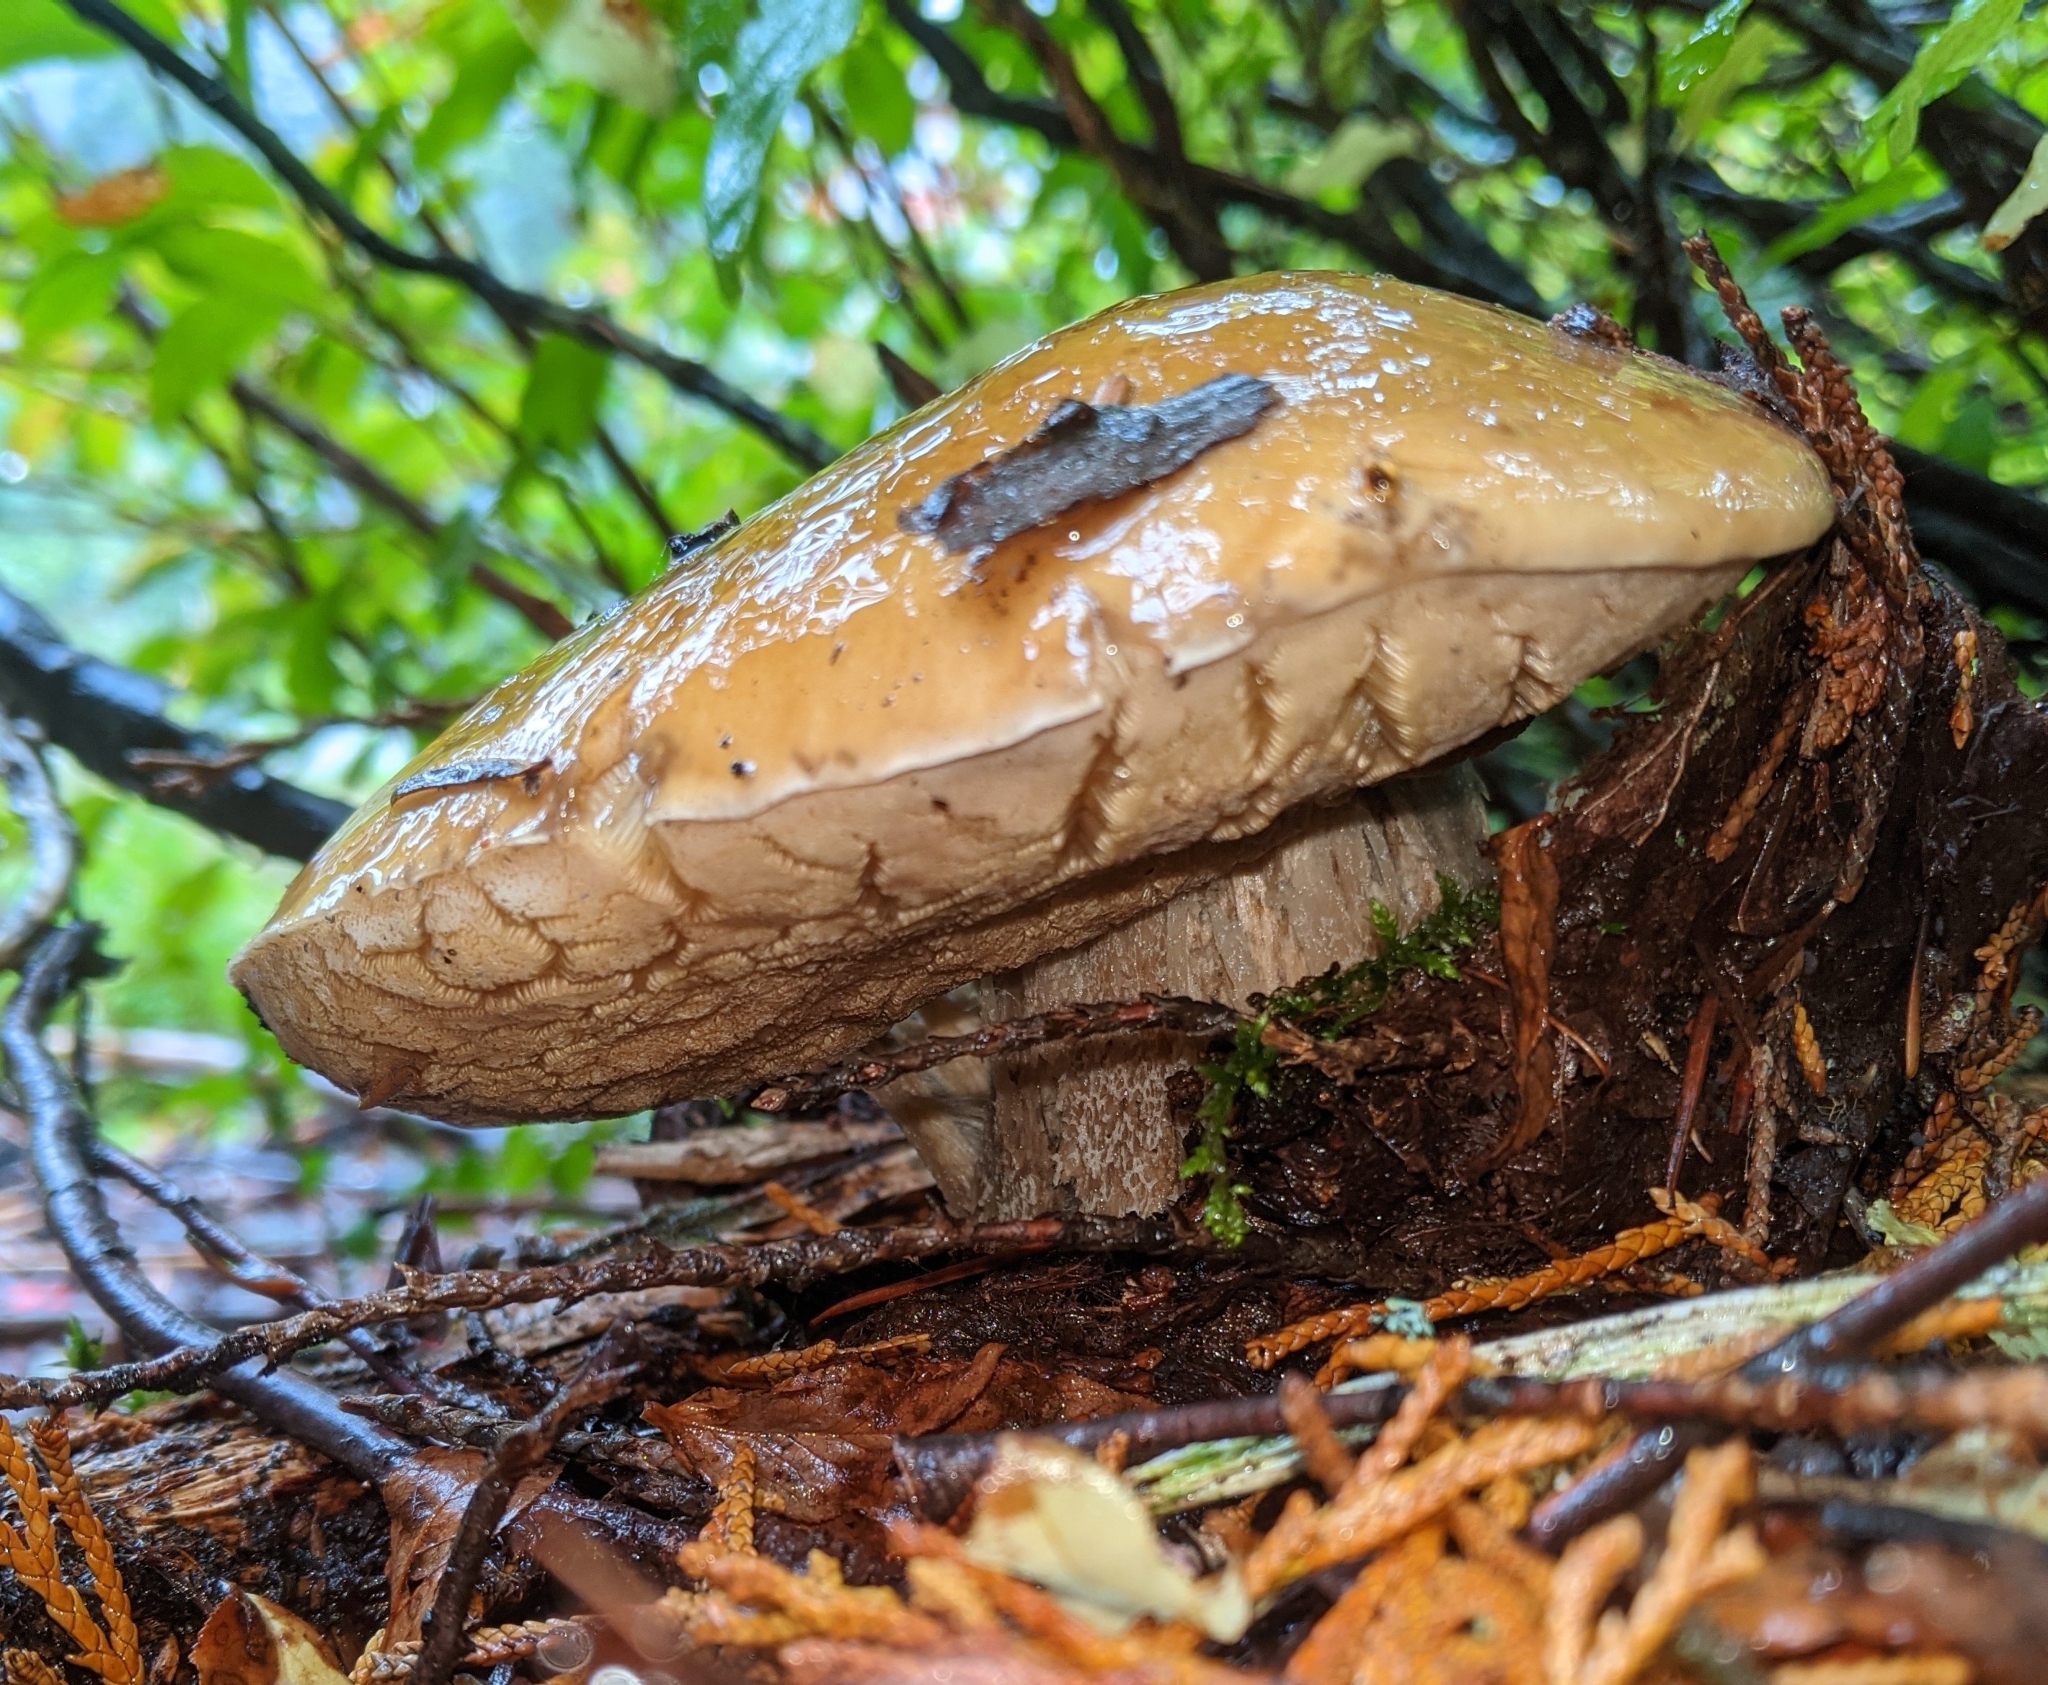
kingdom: Fungi
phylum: Basidiomycota
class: Agaricomycetes
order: Boletales
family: Boletaceae
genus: Boletus
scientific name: Boletus edulis
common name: Cep
